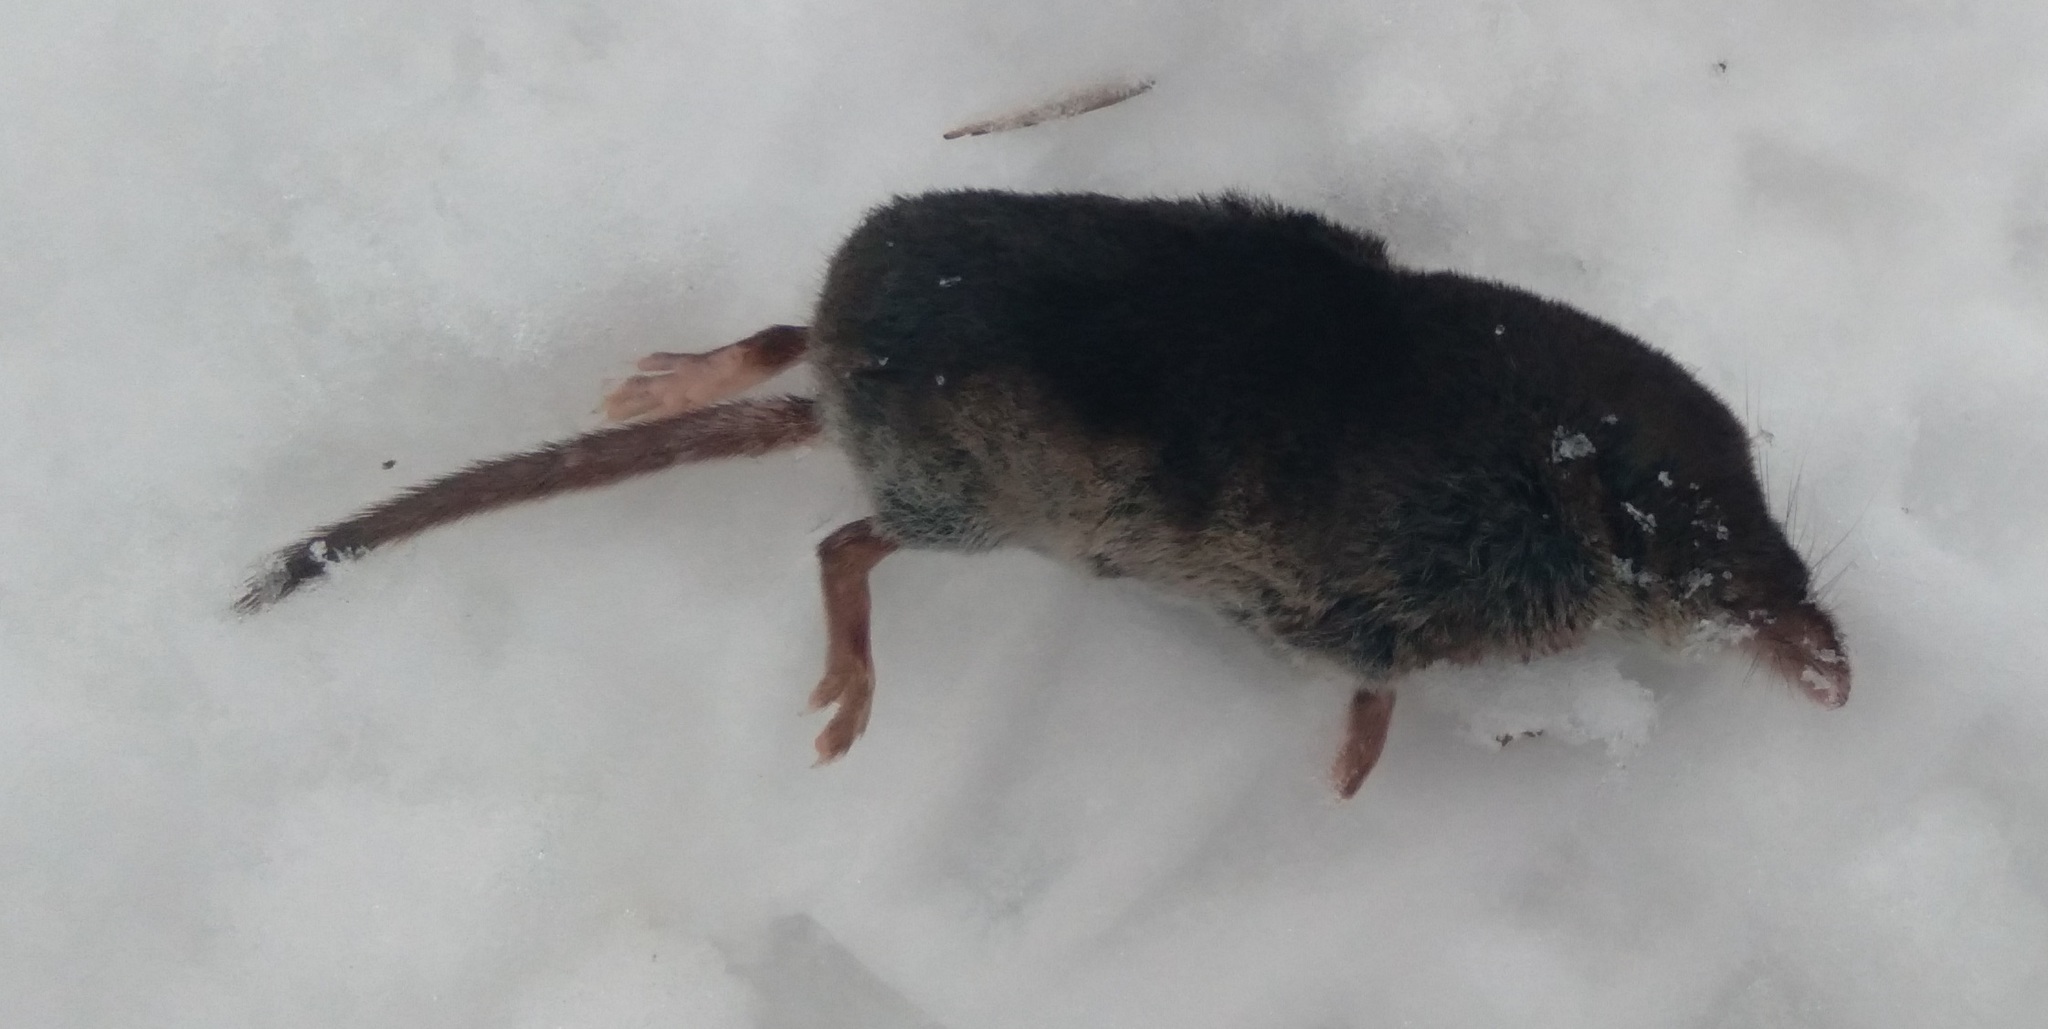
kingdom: Animalia
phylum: Chordata
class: Mammalia
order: Soricomorpha
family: Soricidae
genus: Sorex
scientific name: Sorex araneus
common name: Common shrew
